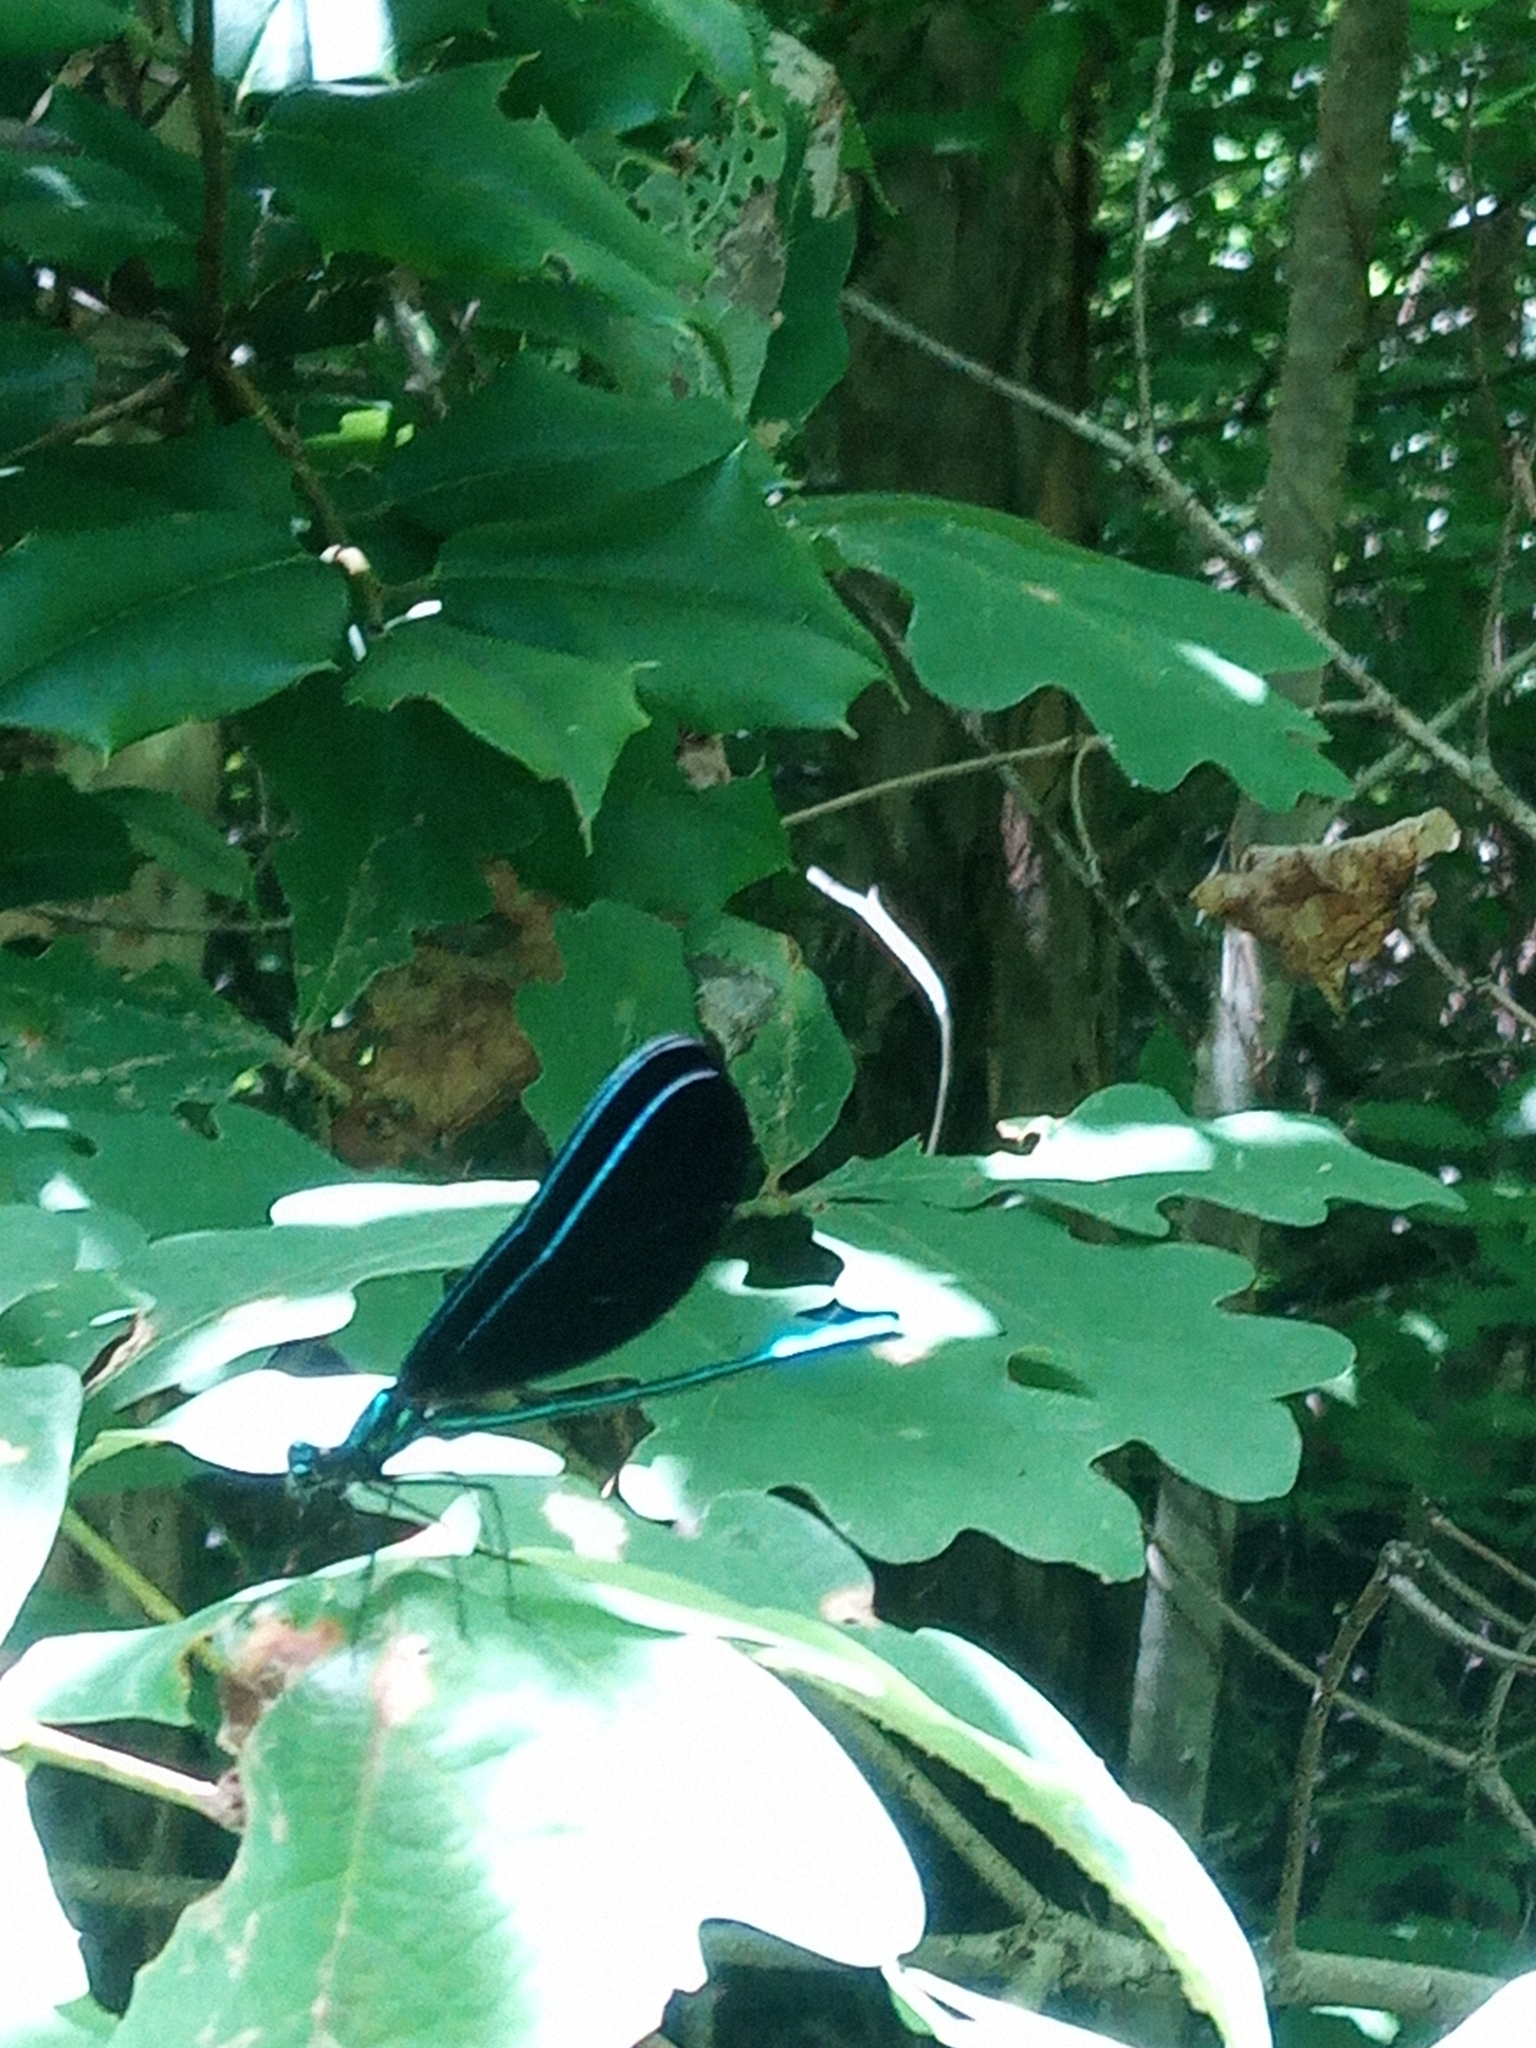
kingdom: Animalia
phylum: Arthropoda
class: Insecta
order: Odonata
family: Calopterygidae
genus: Calopteryx
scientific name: Calopteryx maculata
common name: Ebony jewelwing
